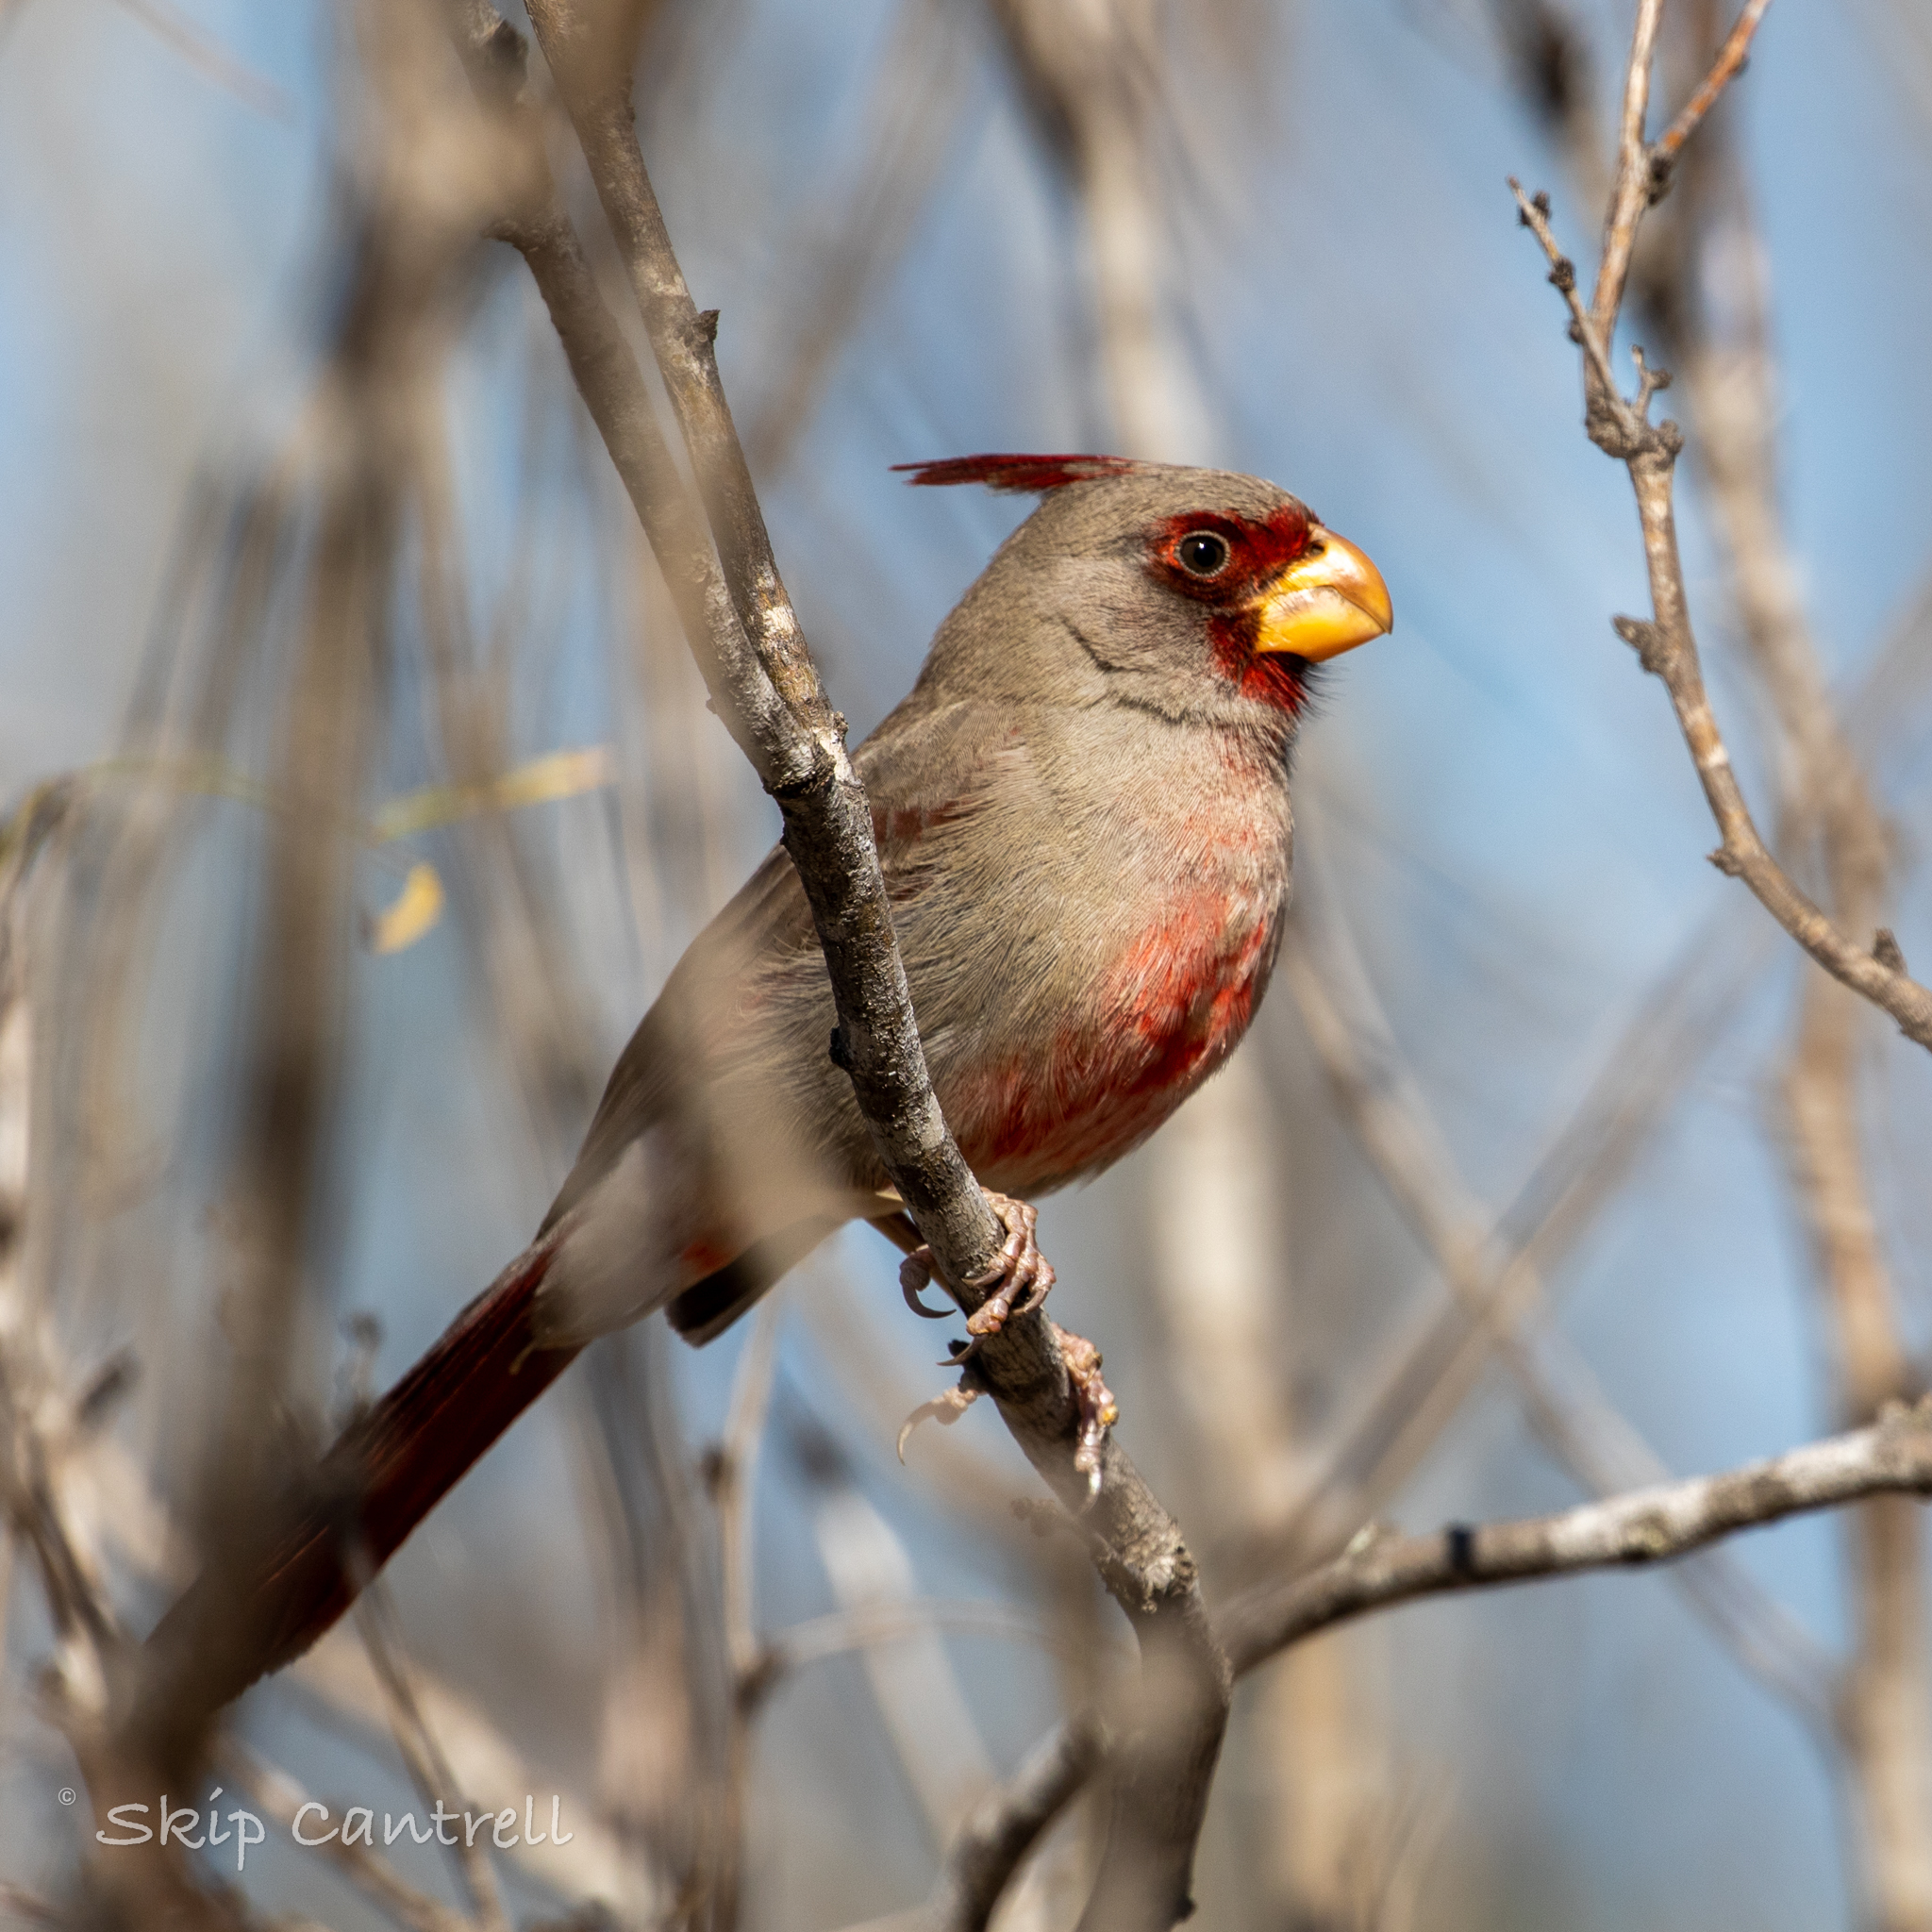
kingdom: Animalia
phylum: Chordata
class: Aves
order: Passeriformes
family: Cardinalidae
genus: Cardinalis
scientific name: Cardinalis sinuatus
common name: Pyrrhuloxia
